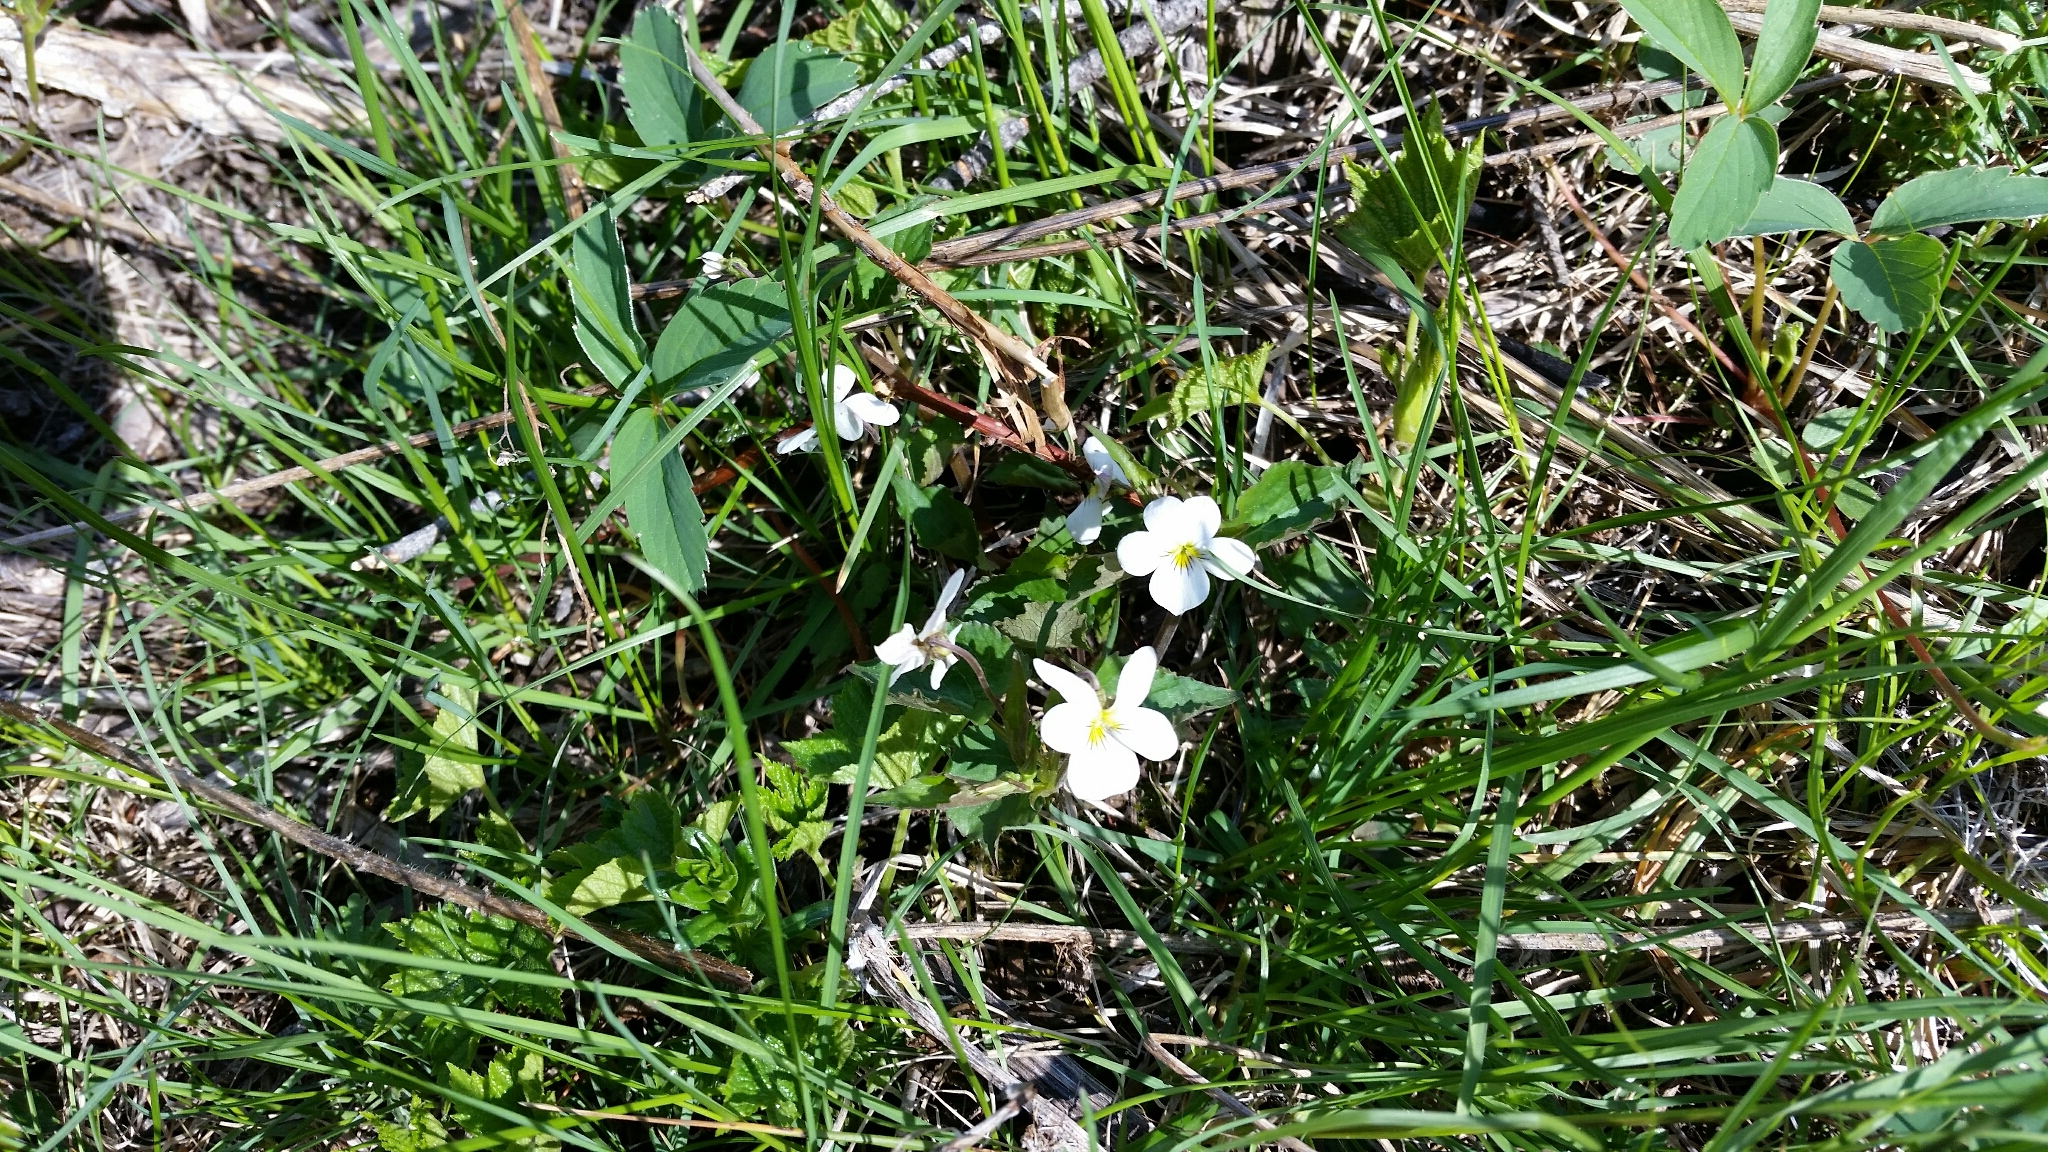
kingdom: Plantae
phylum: Tracheophyta
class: Magnoliopsida
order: Malpighiales
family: Violaceae
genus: Viola
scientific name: Viola canadensis
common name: Canada violet
